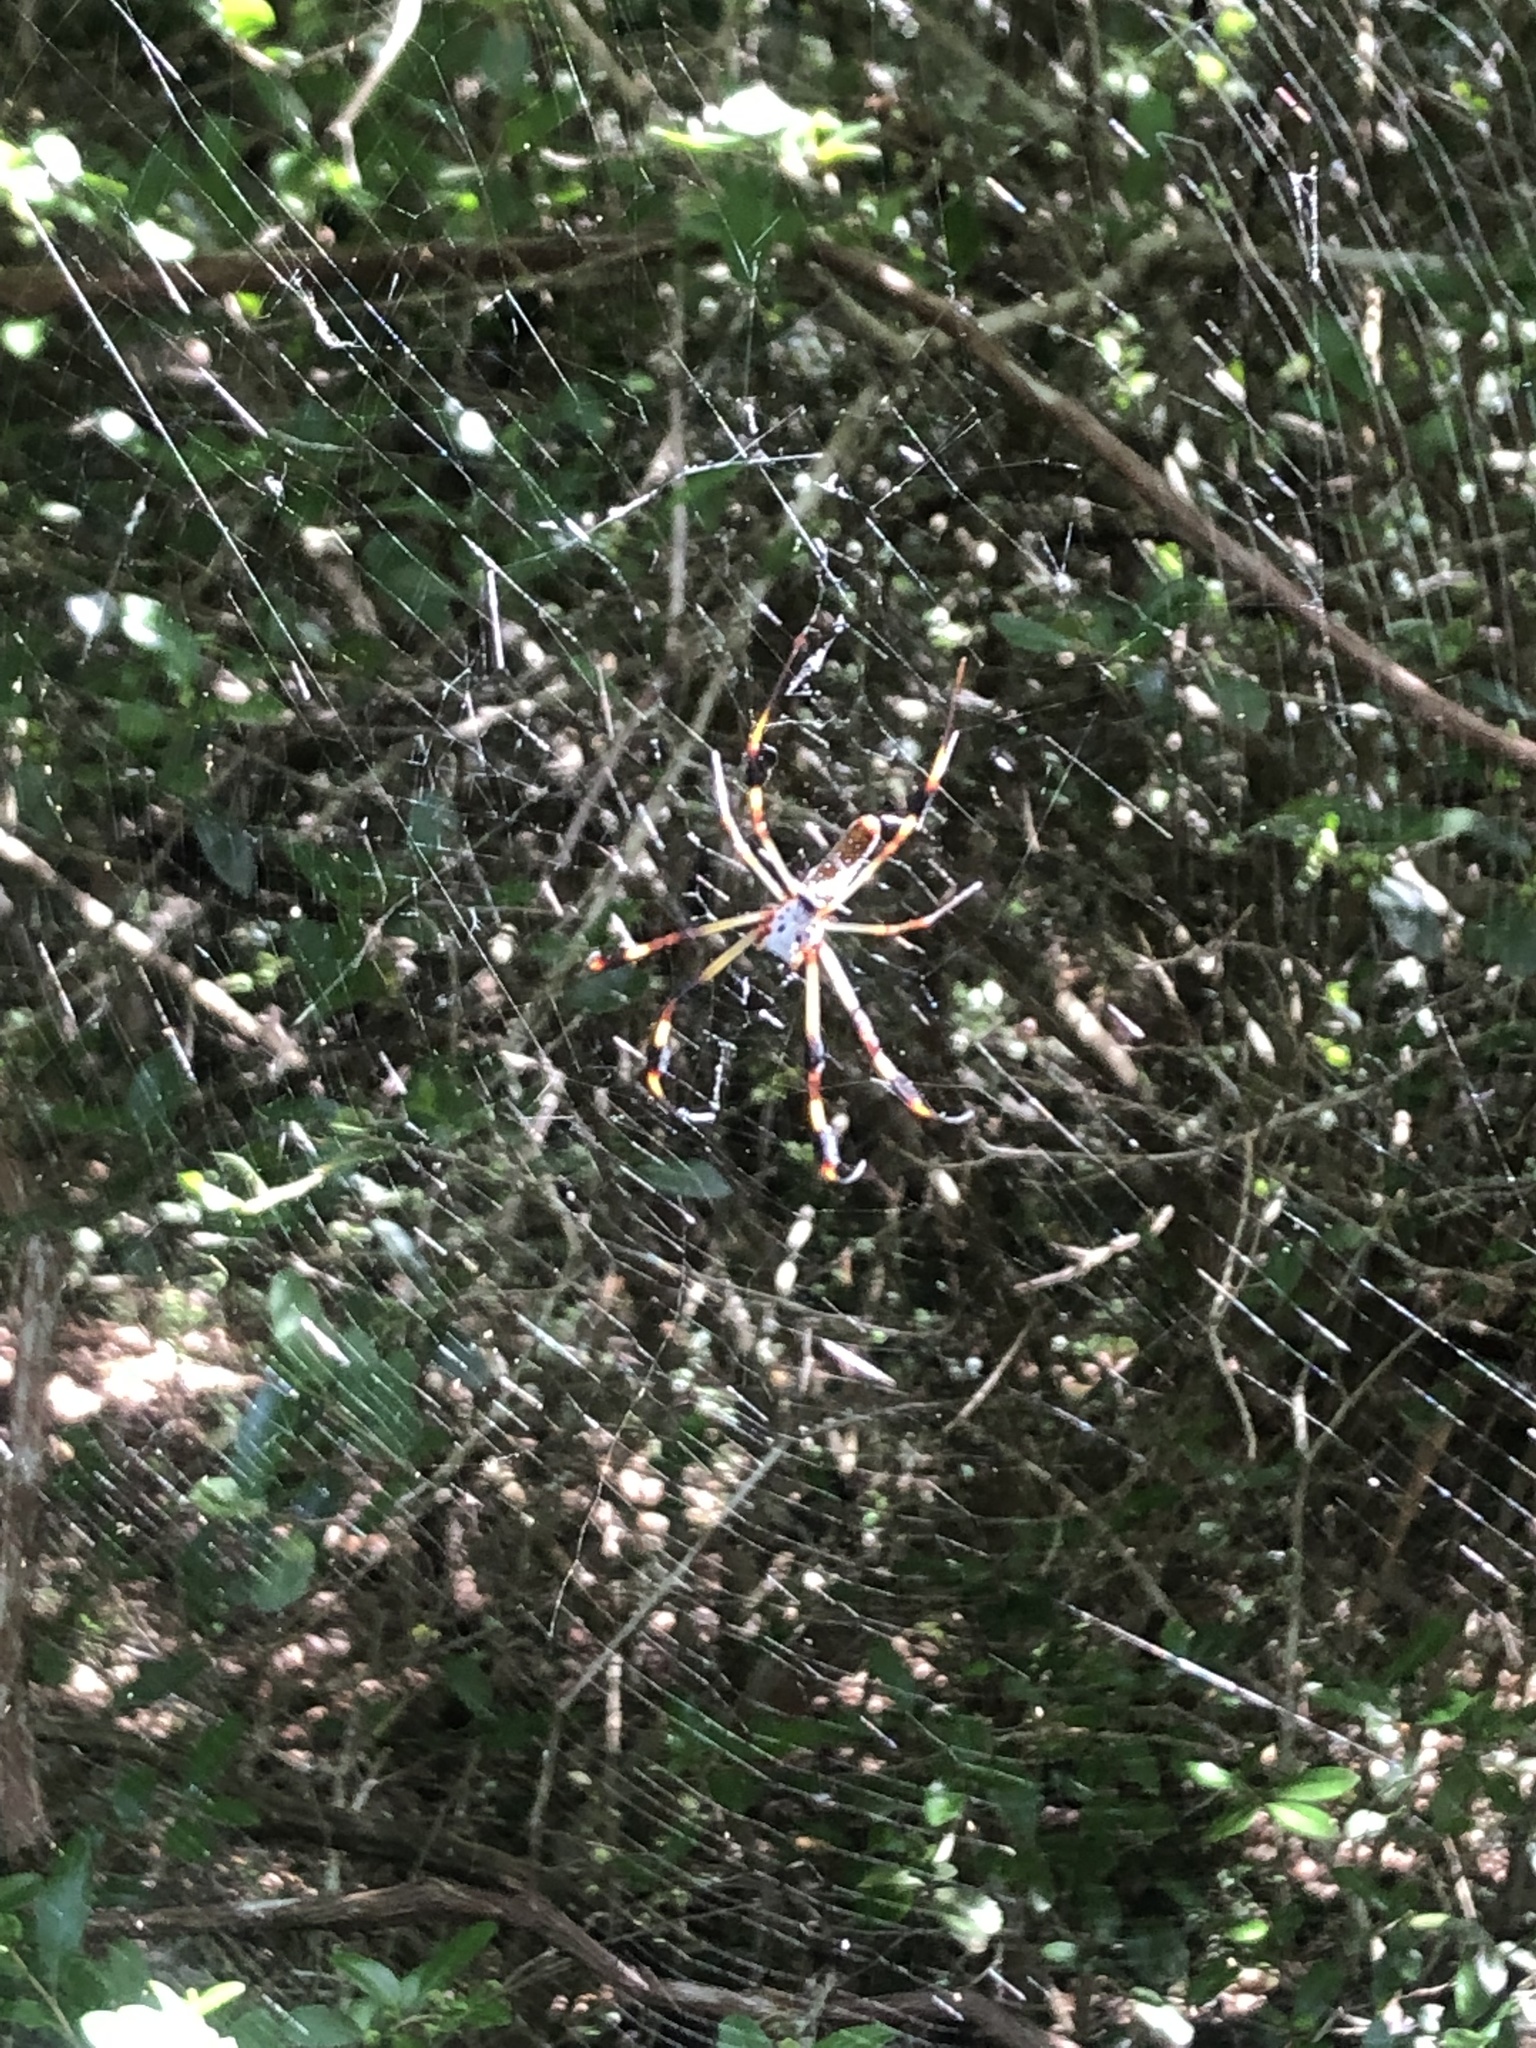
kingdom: Animalia
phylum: Arthropoda
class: Arachnida
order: Araneae
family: Araneidae
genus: Trichonephila
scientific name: Trichonephila clavipes
